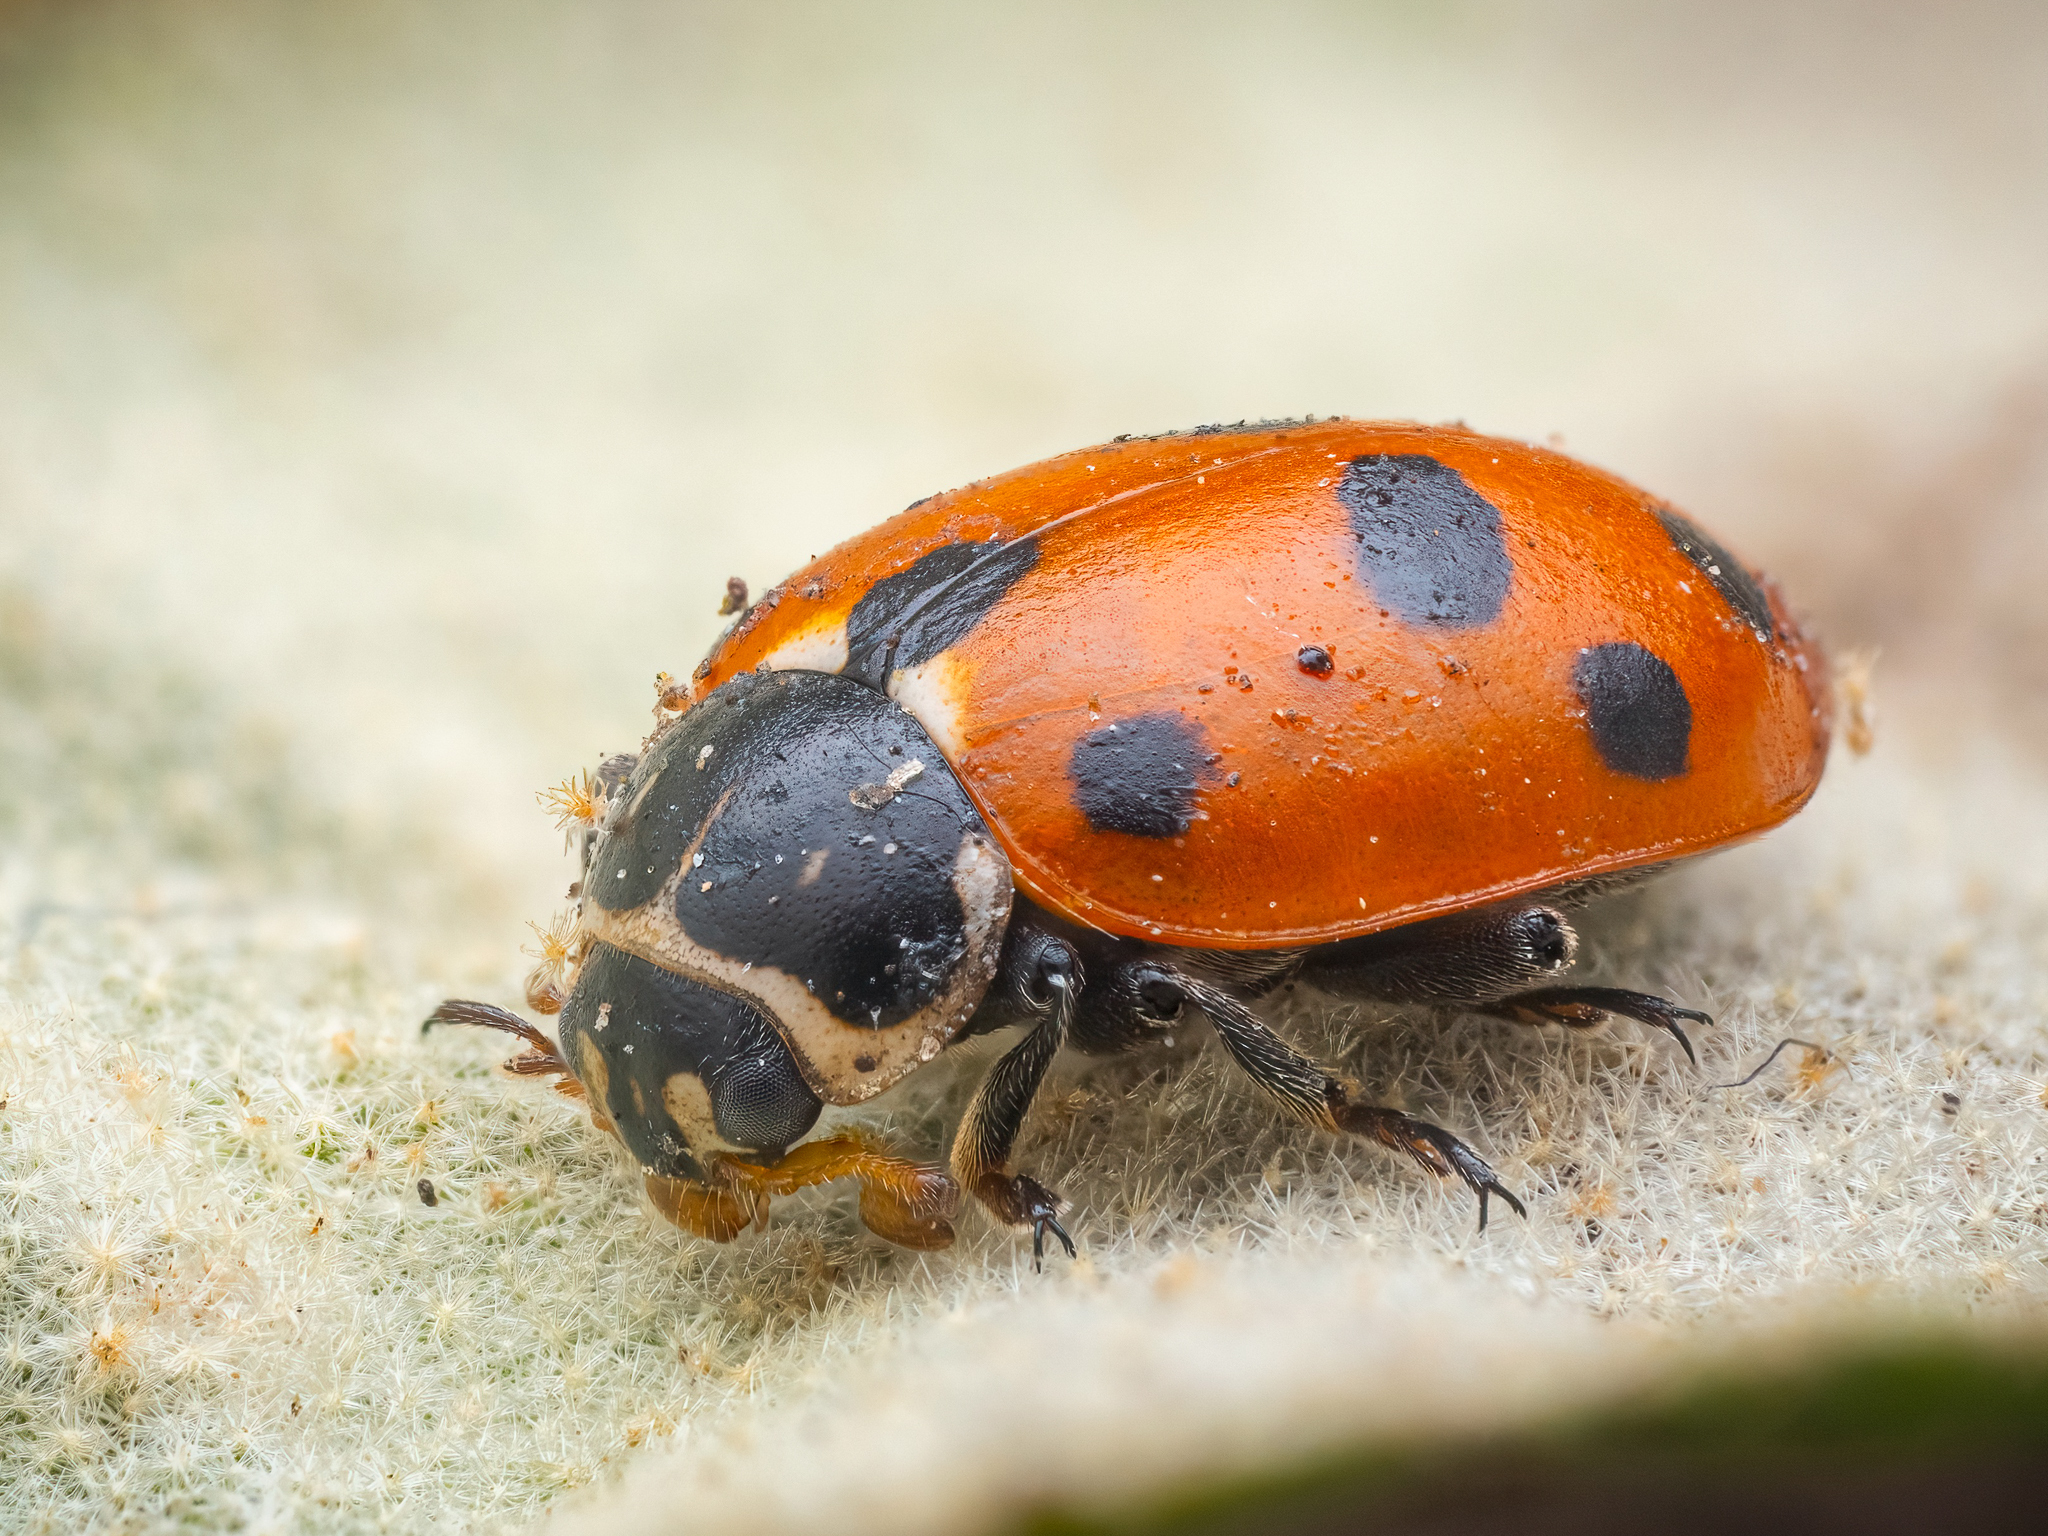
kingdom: Animalia
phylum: Arthropoda
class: Insecta
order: Coleoptera
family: Coccinellidae
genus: Hippodamia
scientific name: Hippodamia variegata
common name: Ladybird beetle
